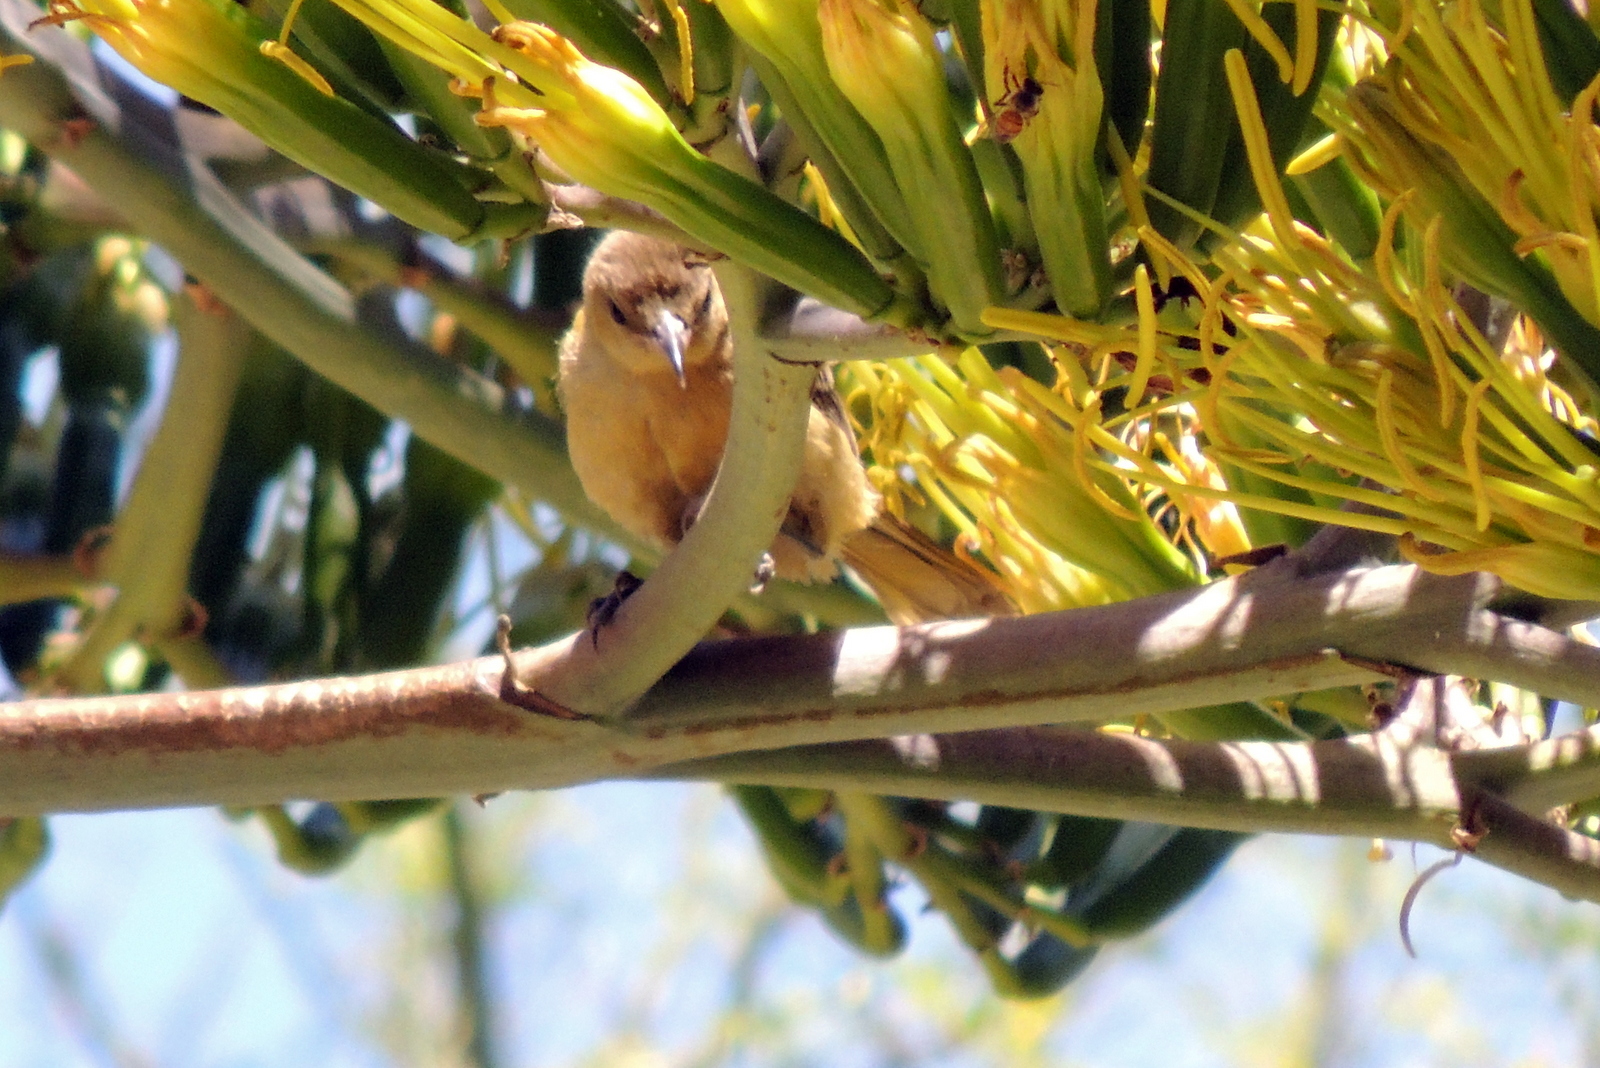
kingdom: Animalia
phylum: Chordata
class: Aves
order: Passeriformes
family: Icteridae
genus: Icterus
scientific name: Icterus cucullatus
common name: Hooded oriole
